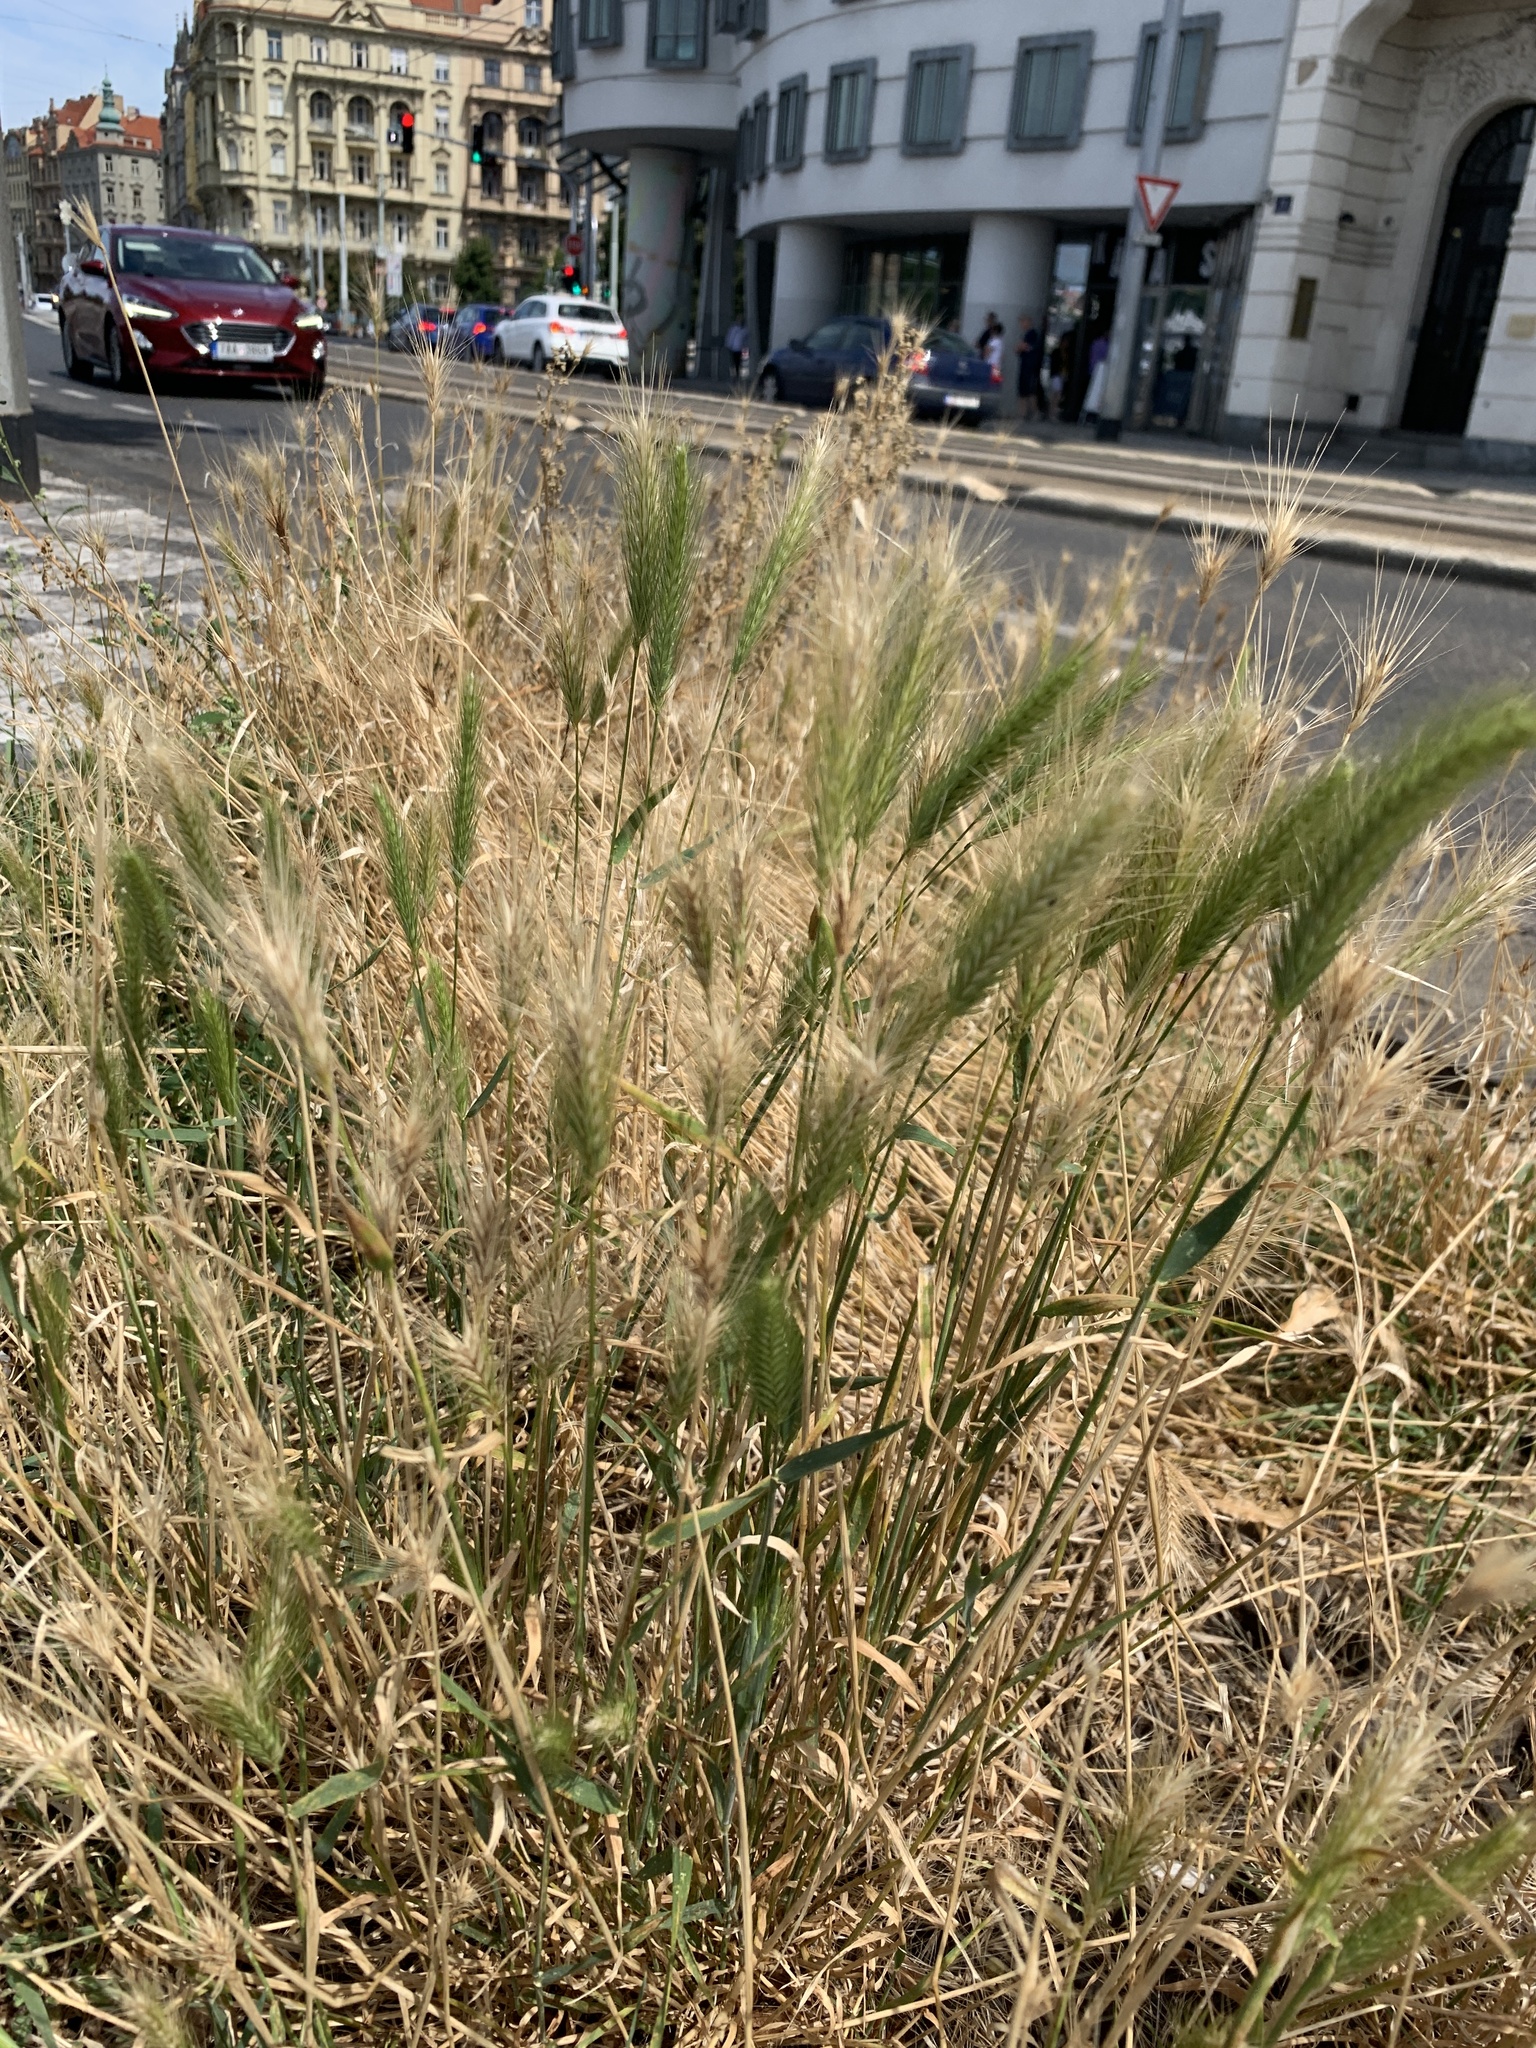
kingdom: Plantae
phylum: Tracheophyta
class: Liliopsida
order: Poales
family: Poaceae
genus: Hordeum
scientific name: Hordeum murinum
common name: Wall barley
